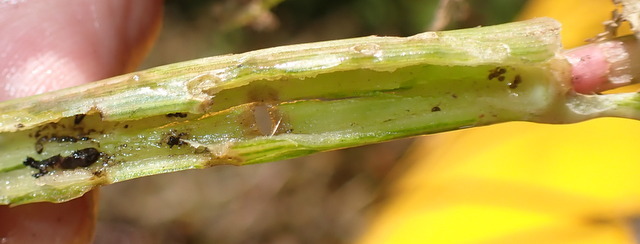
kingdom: Animalia
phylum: Arthropoda
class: Insecta
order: Coleoptera
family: Chrysomelidae
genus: Agasicles
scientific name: Agasicles hygrophila
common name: Alligatorweed flea beetle
